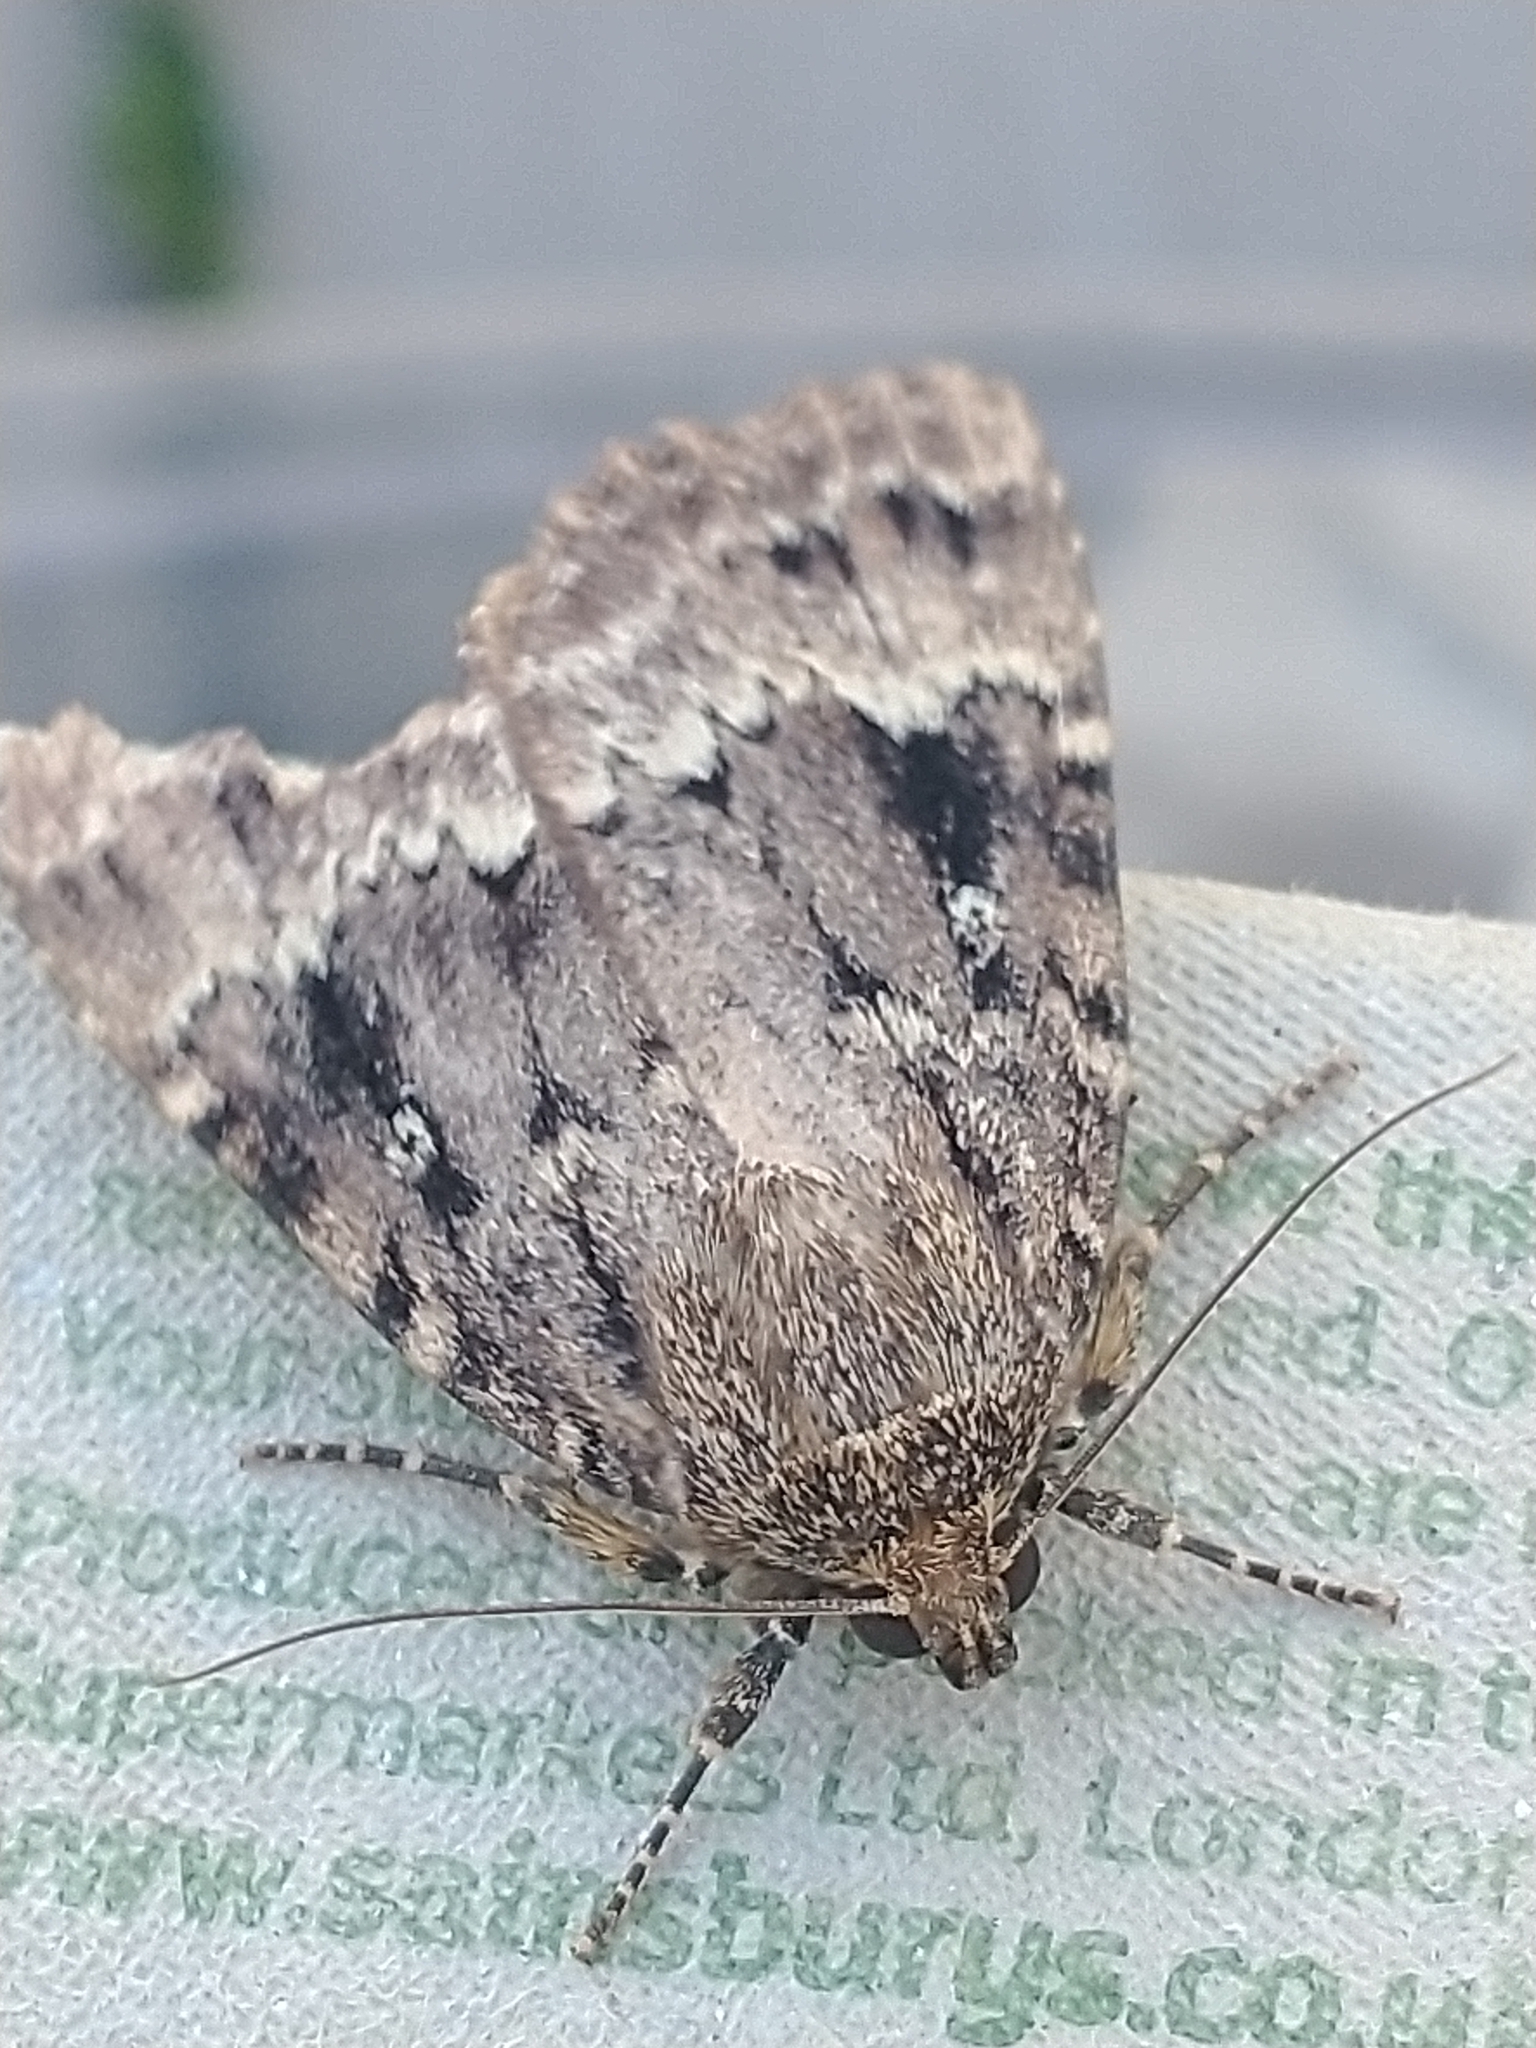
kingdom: Animalia
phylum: Arthropoda
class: Insecta
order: Lepidoptera
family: Noctuidae
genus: Amphipyra
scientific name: Amphipyra pyramidea
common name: Copper underwing
